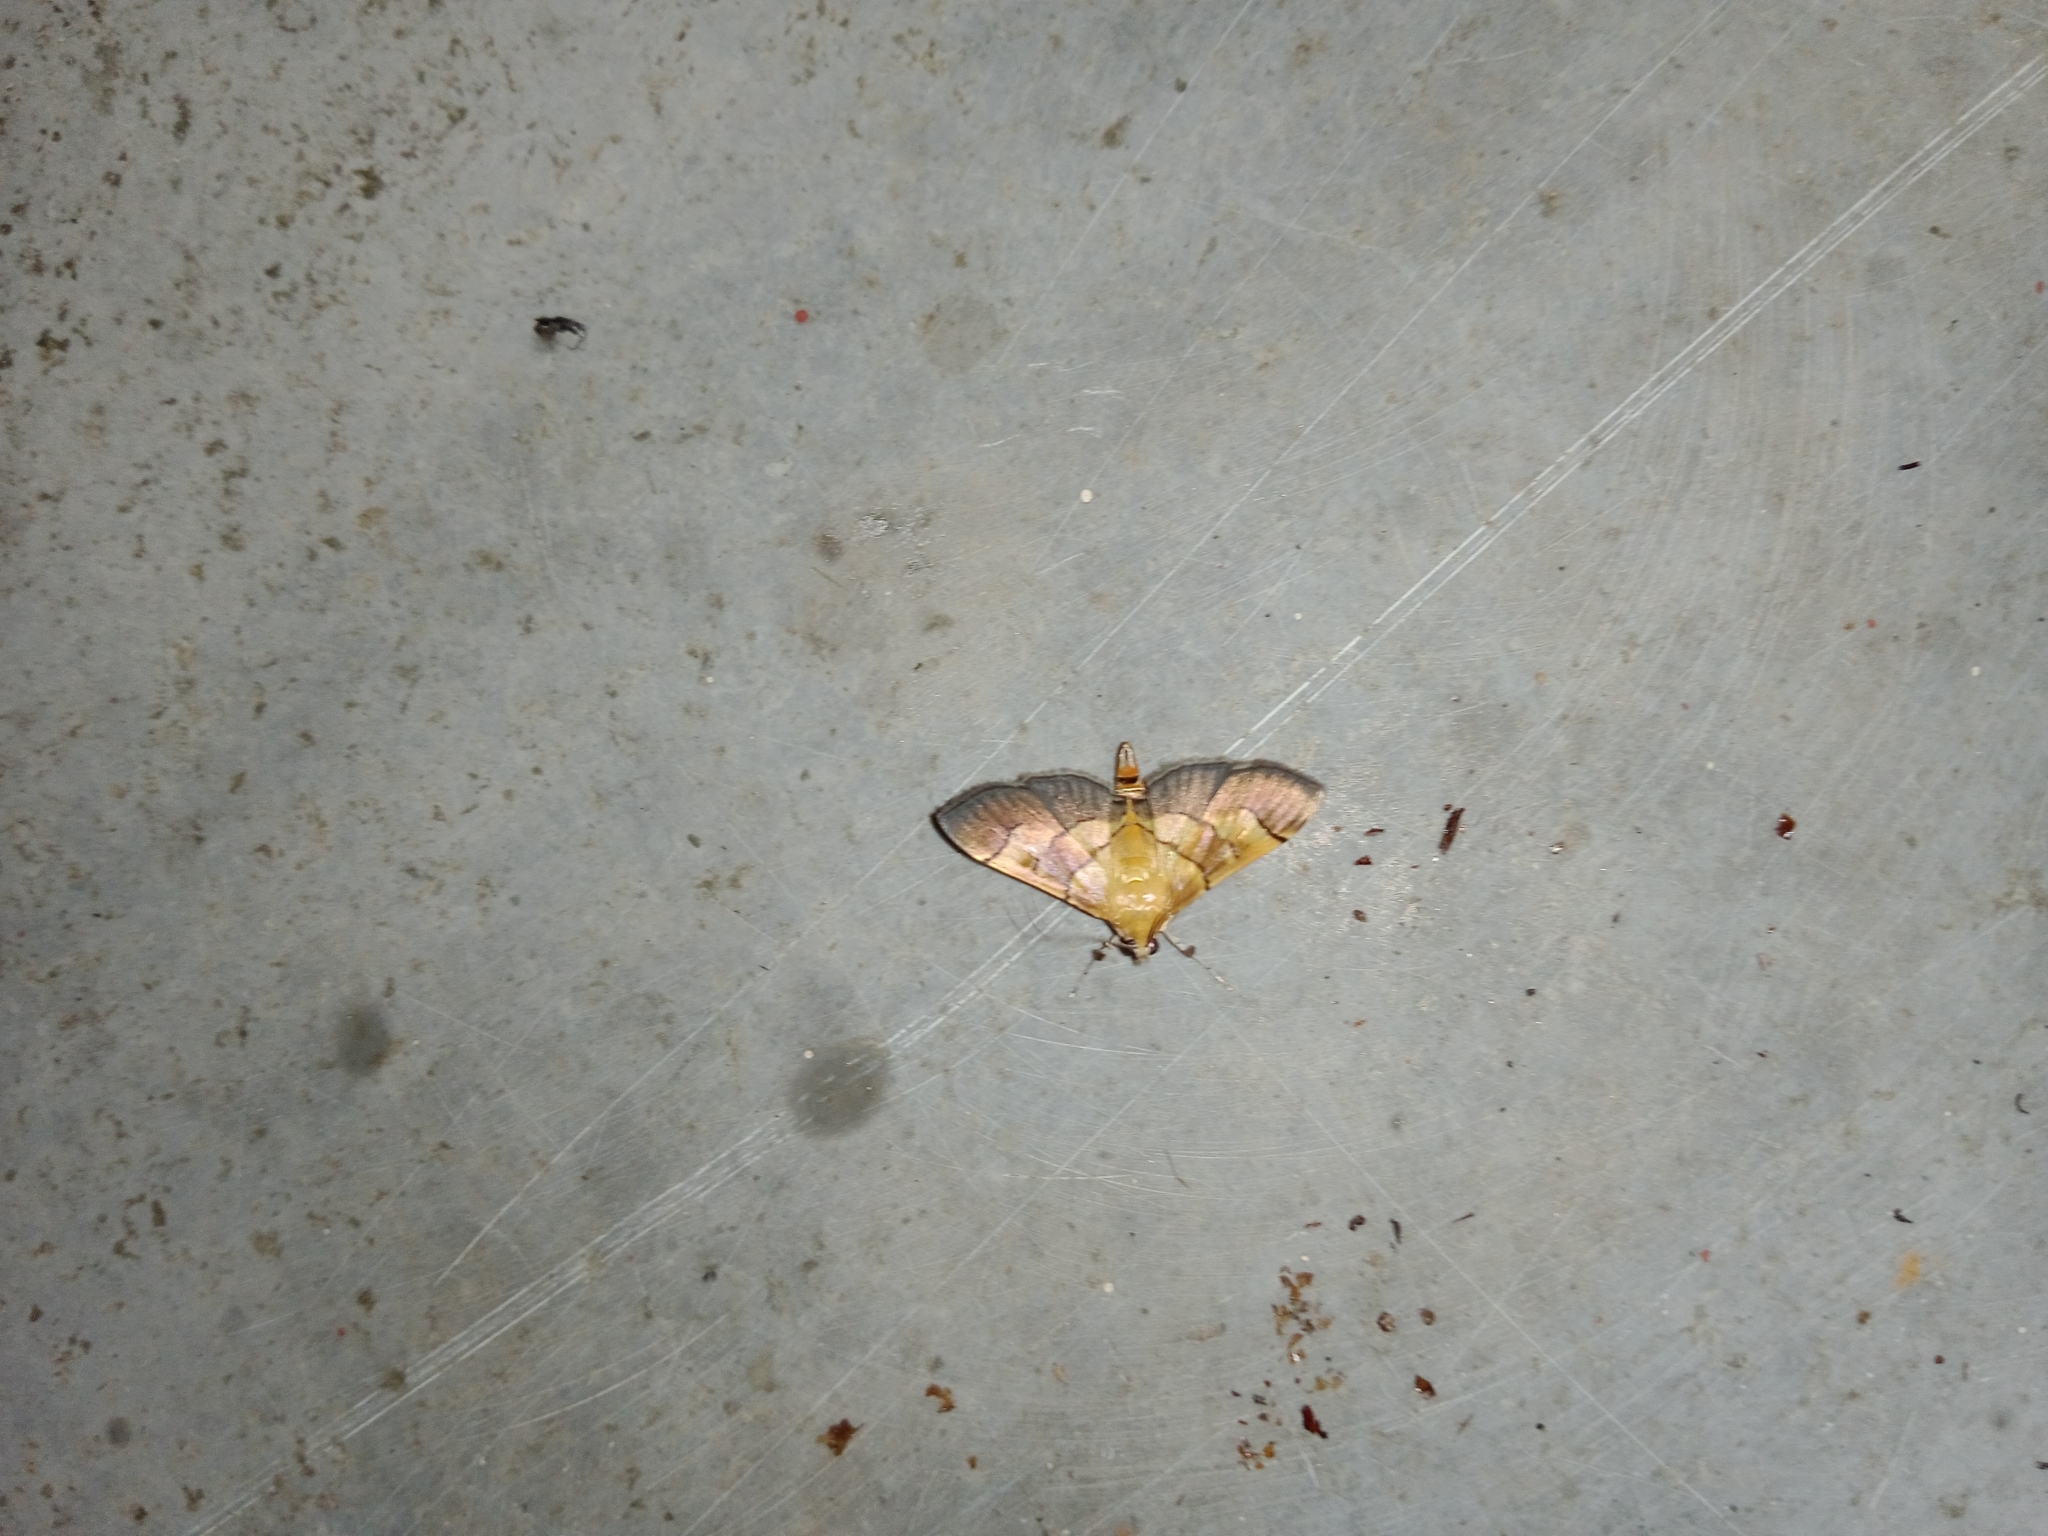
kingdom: Animalia
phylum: Arthropoda
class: Insecta
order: Lepidoptera
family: Crambidae
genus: Syngamia
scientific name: Syngamia latimarginalis
